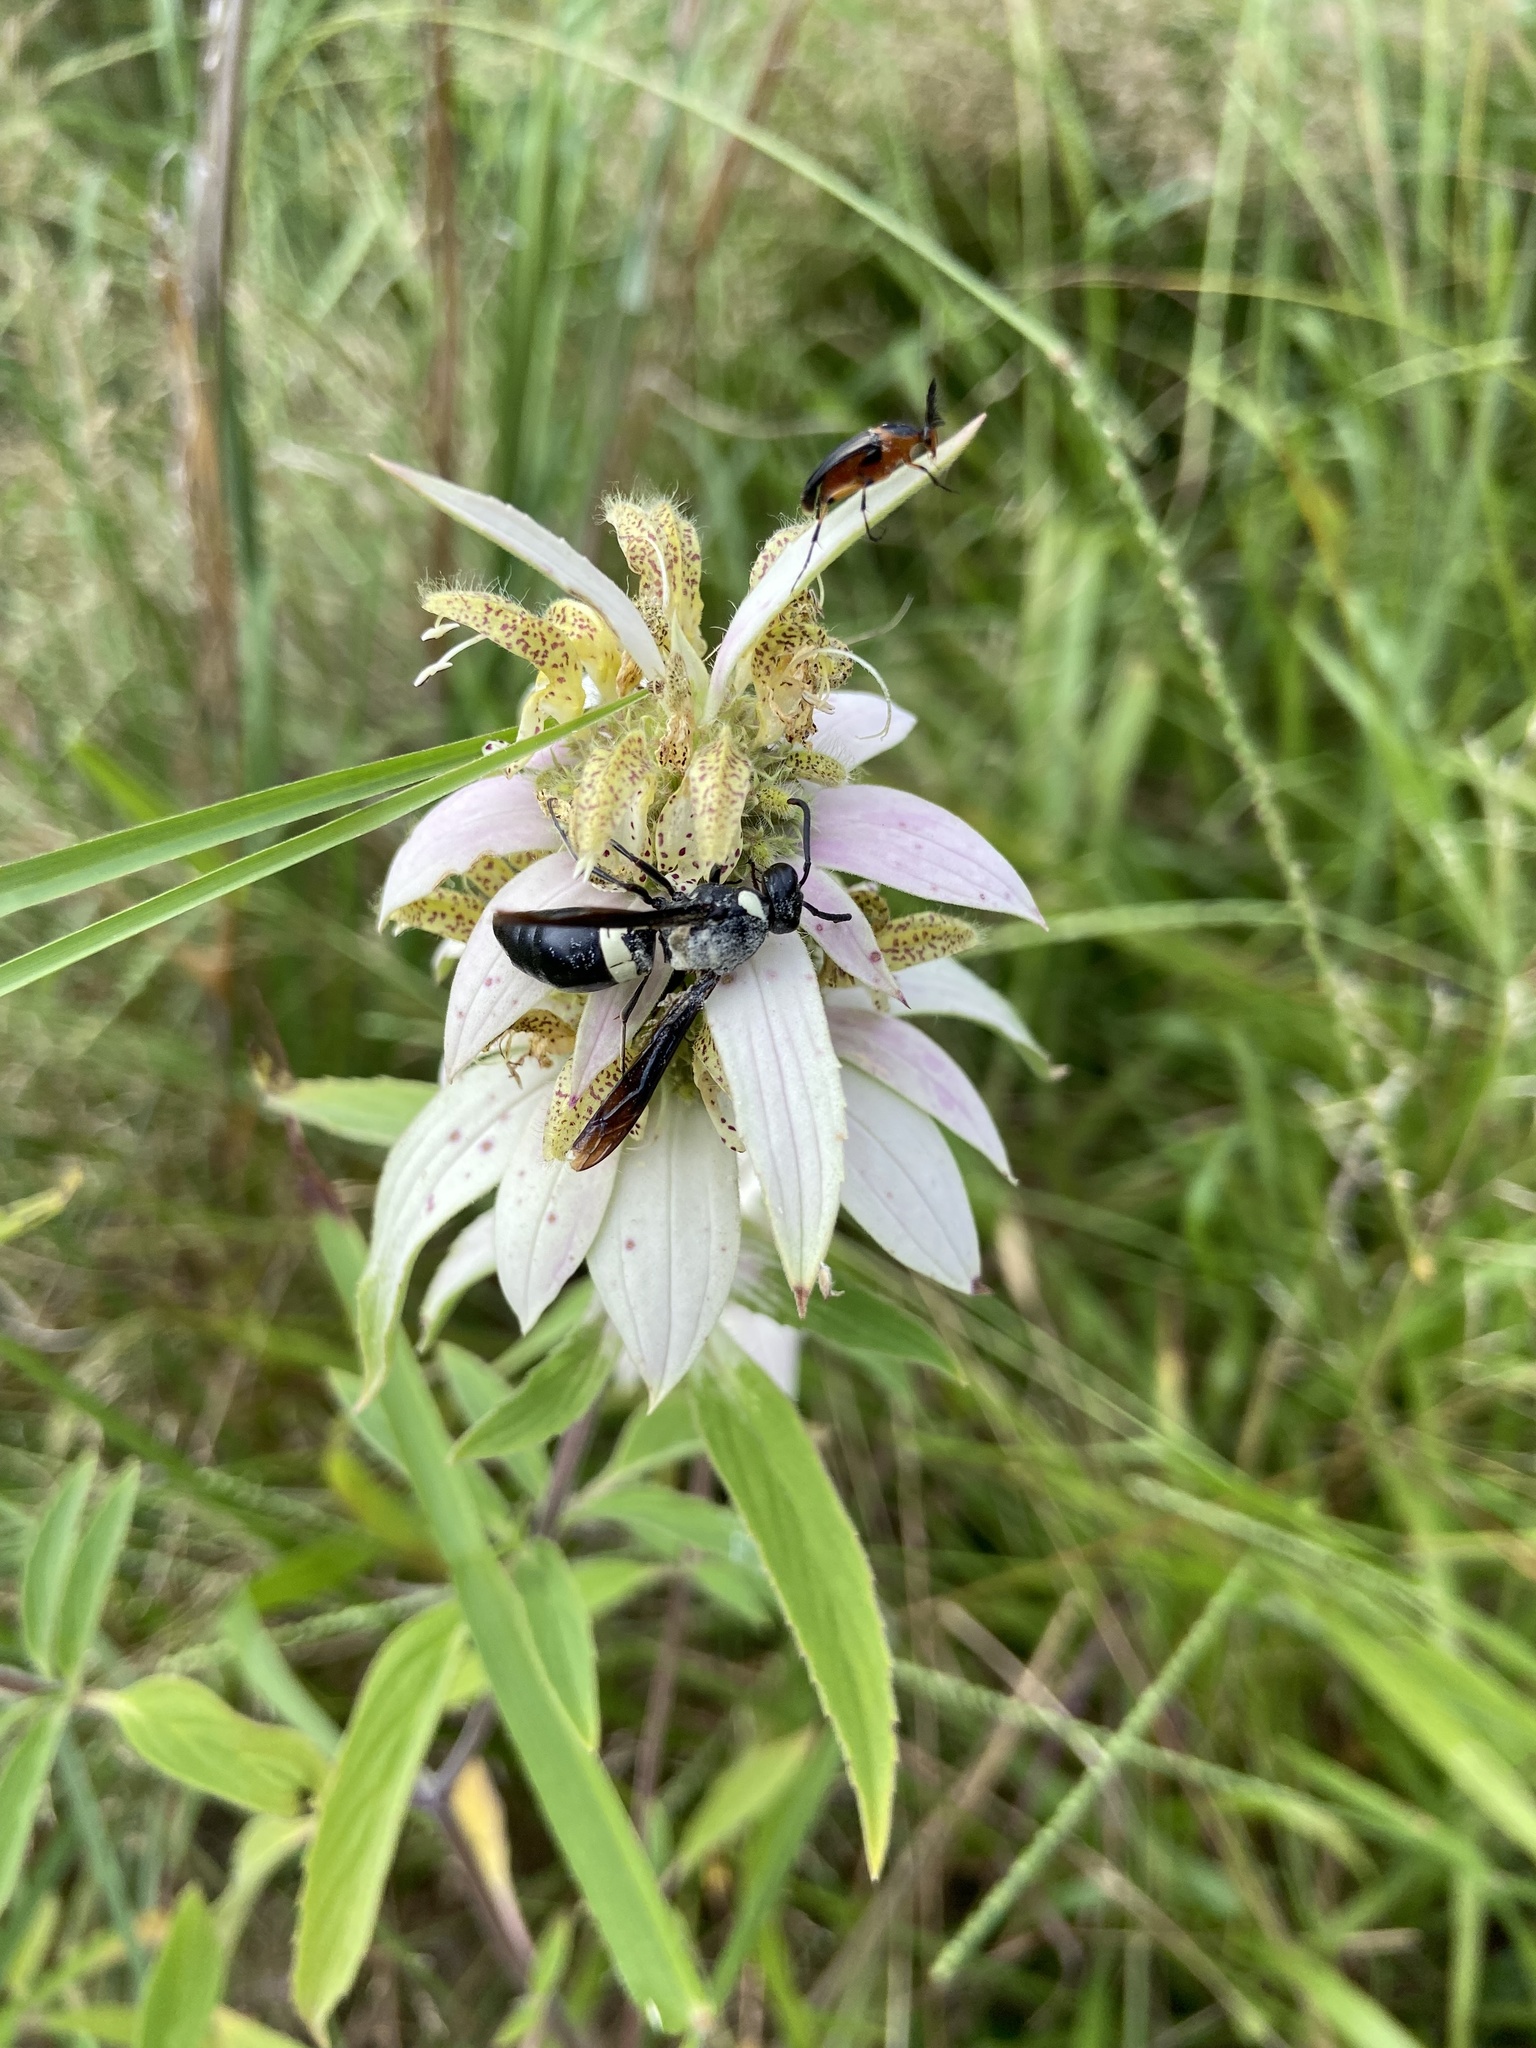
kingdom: Animalia
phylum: Arthropoda
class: Insecta
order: Hymenoptera
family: Eumenidae
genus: Monobia
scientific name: Monobia quadridens
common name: Four-toothed mason wasp
